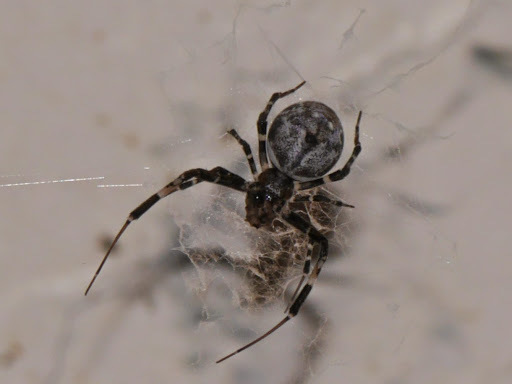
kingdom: Animalia
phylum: Arthropoda
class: Arachnida
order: Araneae
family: Araneidae
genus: Nephilingis
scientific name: Nephilingis cruentata
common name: African hermit spider
